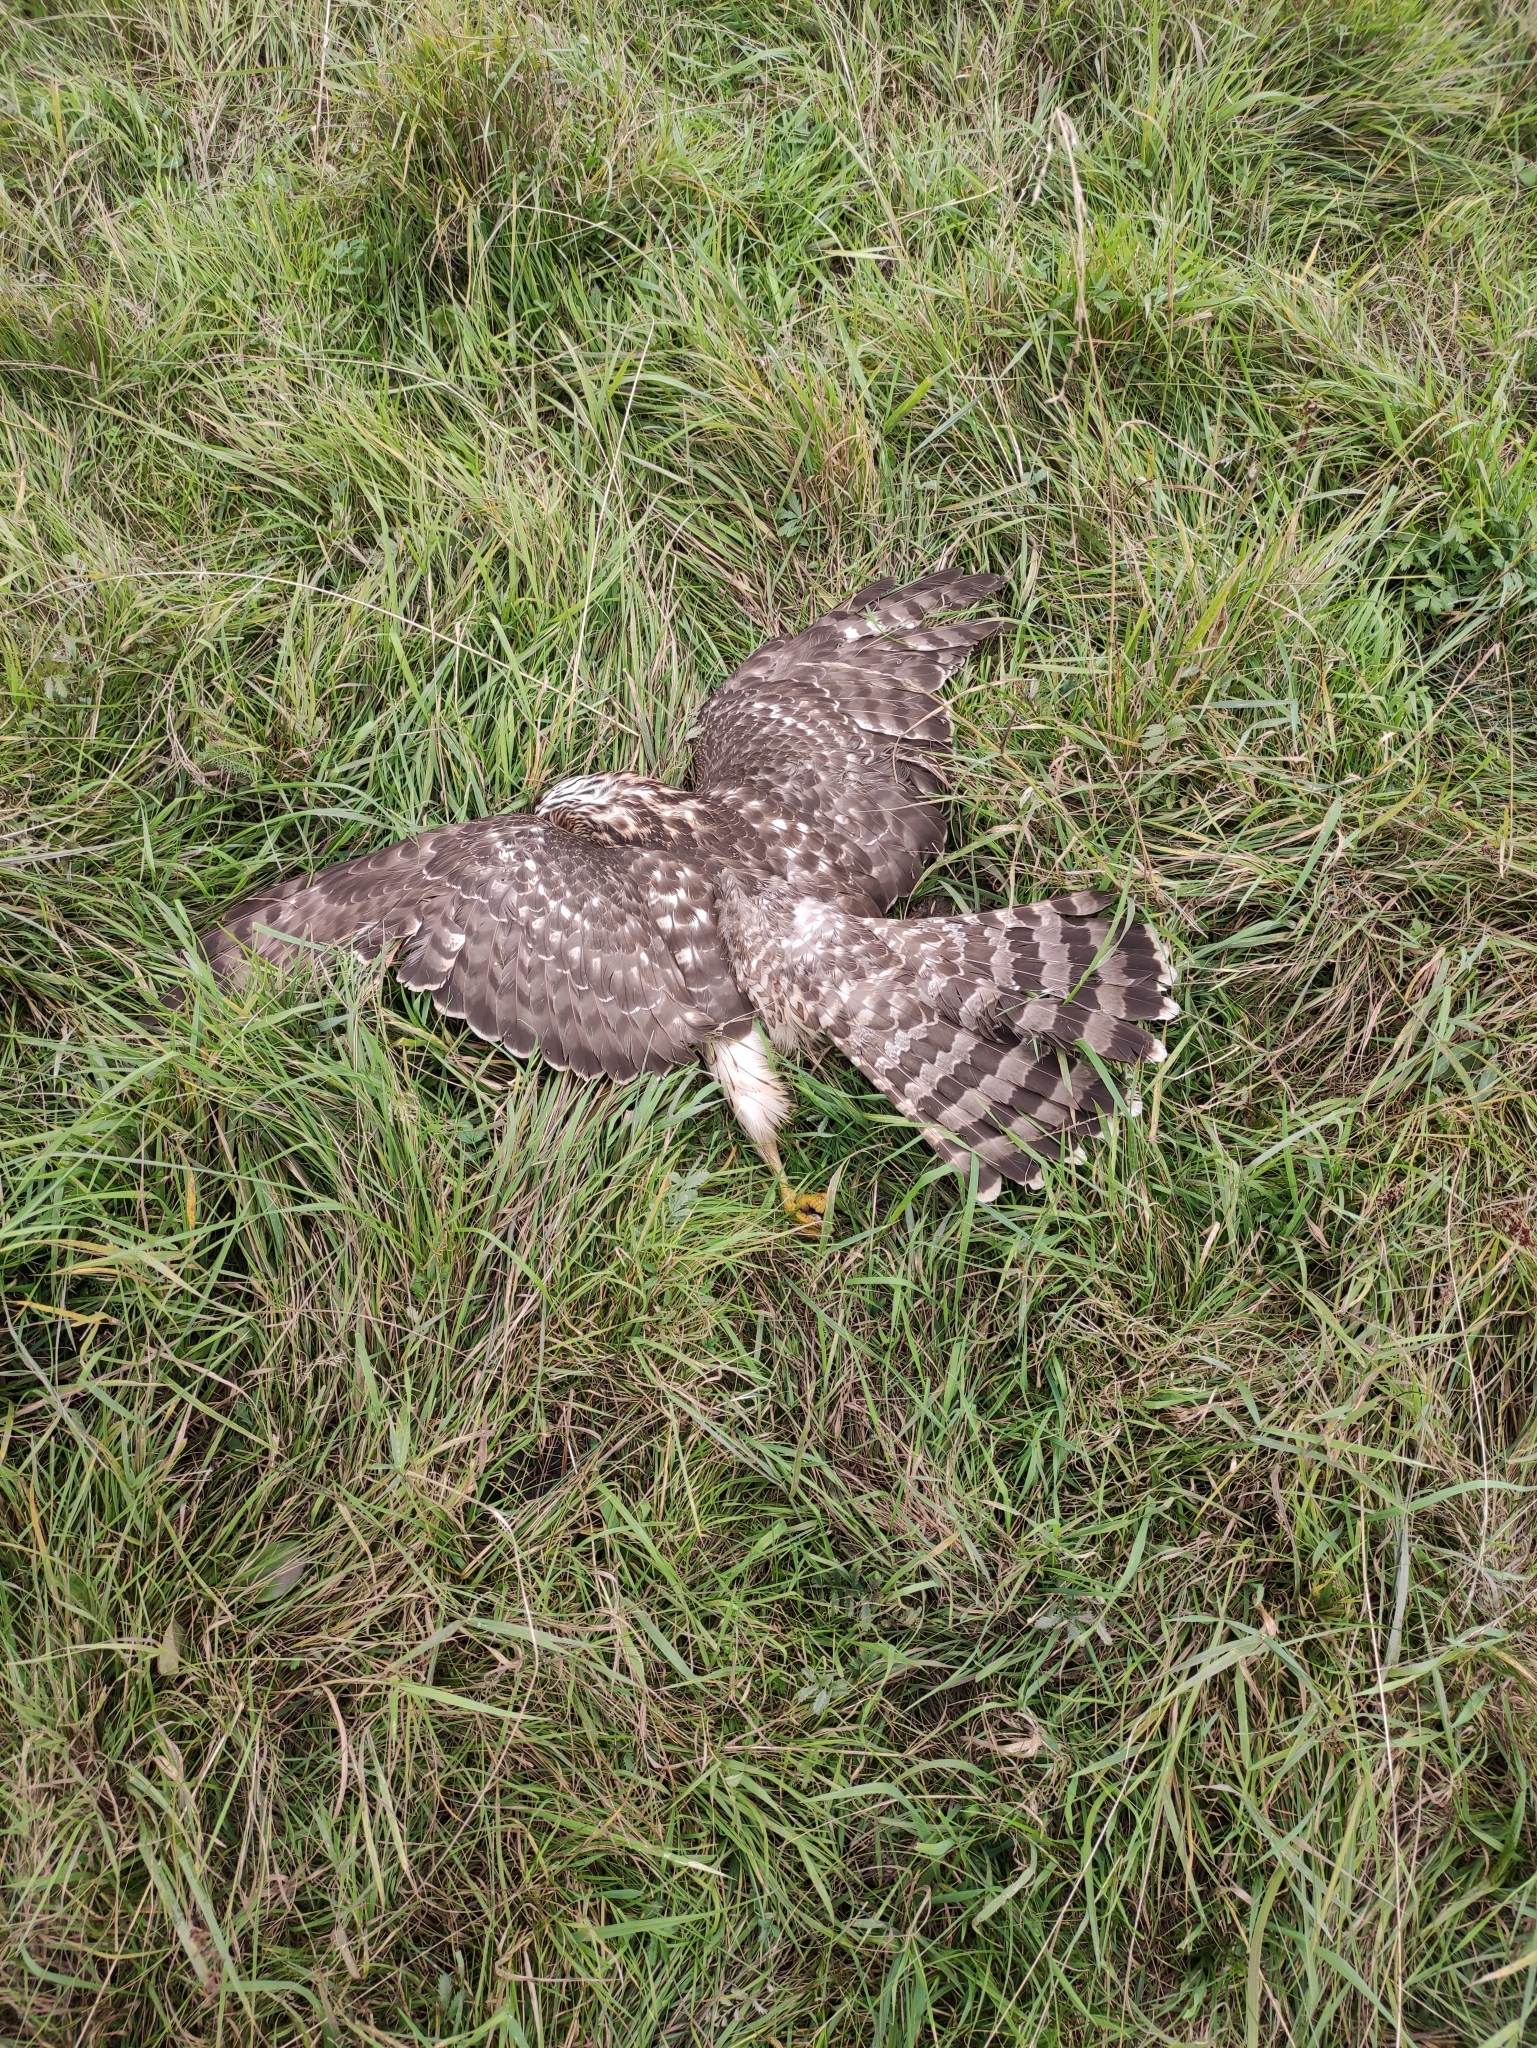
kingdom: Animalia
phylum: Chordata
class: Aves
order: Accipitriformes
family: Accipitridae
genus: Accipiter
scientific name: Accipiter gentilis
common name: Northern goshawk
